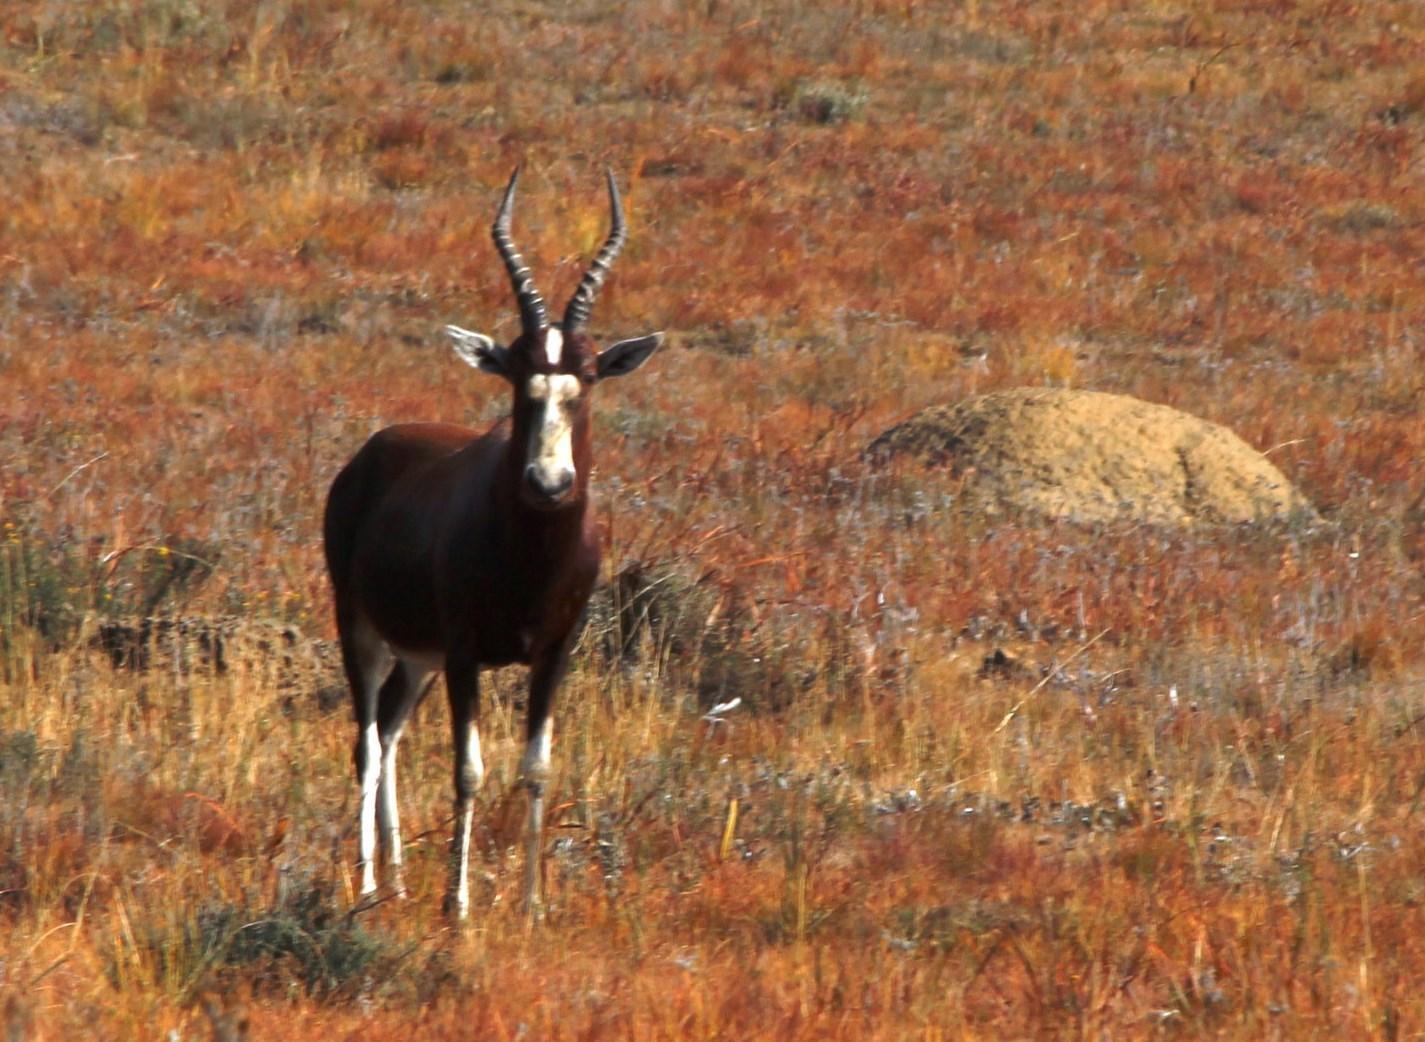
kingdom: Animalia
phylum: Chordata
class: Mammalia
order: Artiodactyla
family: Bovidae
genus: Damaliscus
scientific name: Damaliscus pygargus
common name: Bontebok
